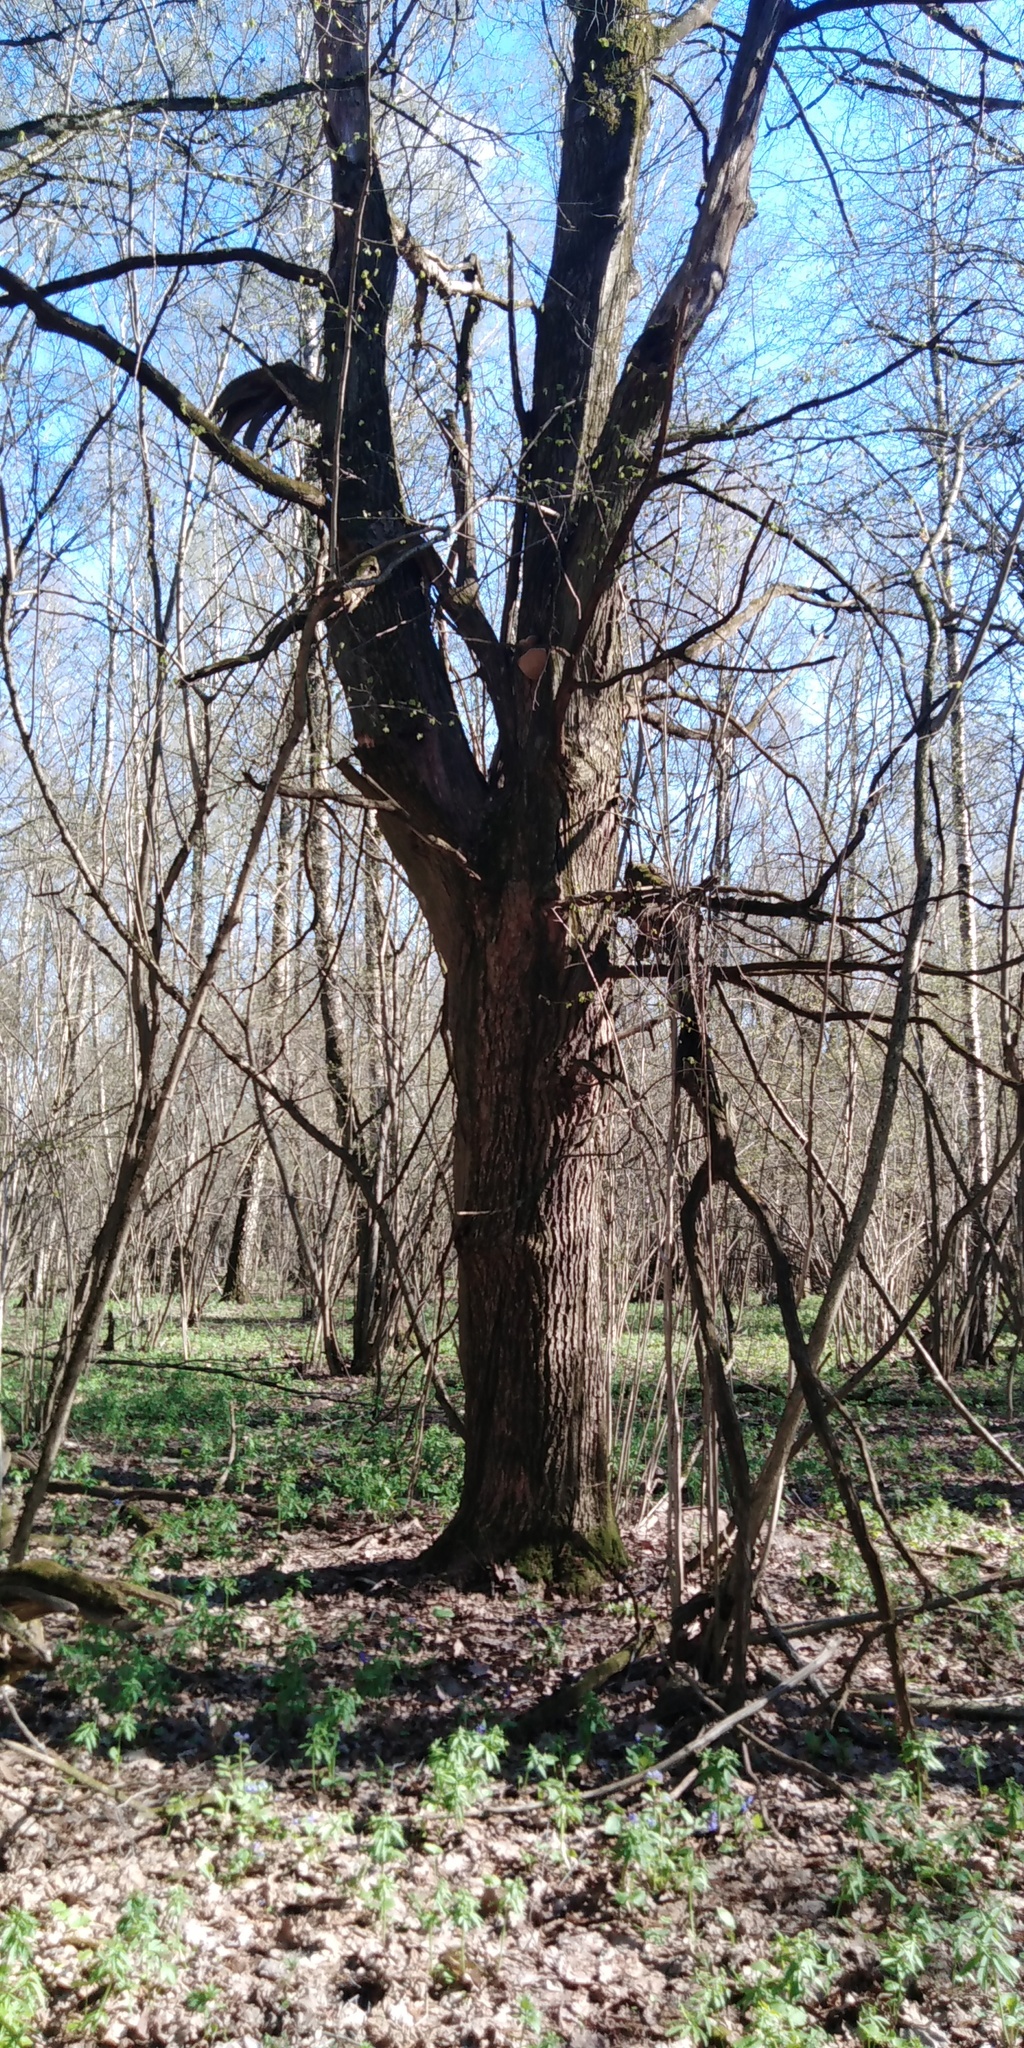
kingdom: Plantae
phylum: Tracheophyta
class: Magnoliopsida
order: Fagales
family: Fagaceae
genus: Quercus
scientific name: Quercus robur
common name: Pedunculate oak
